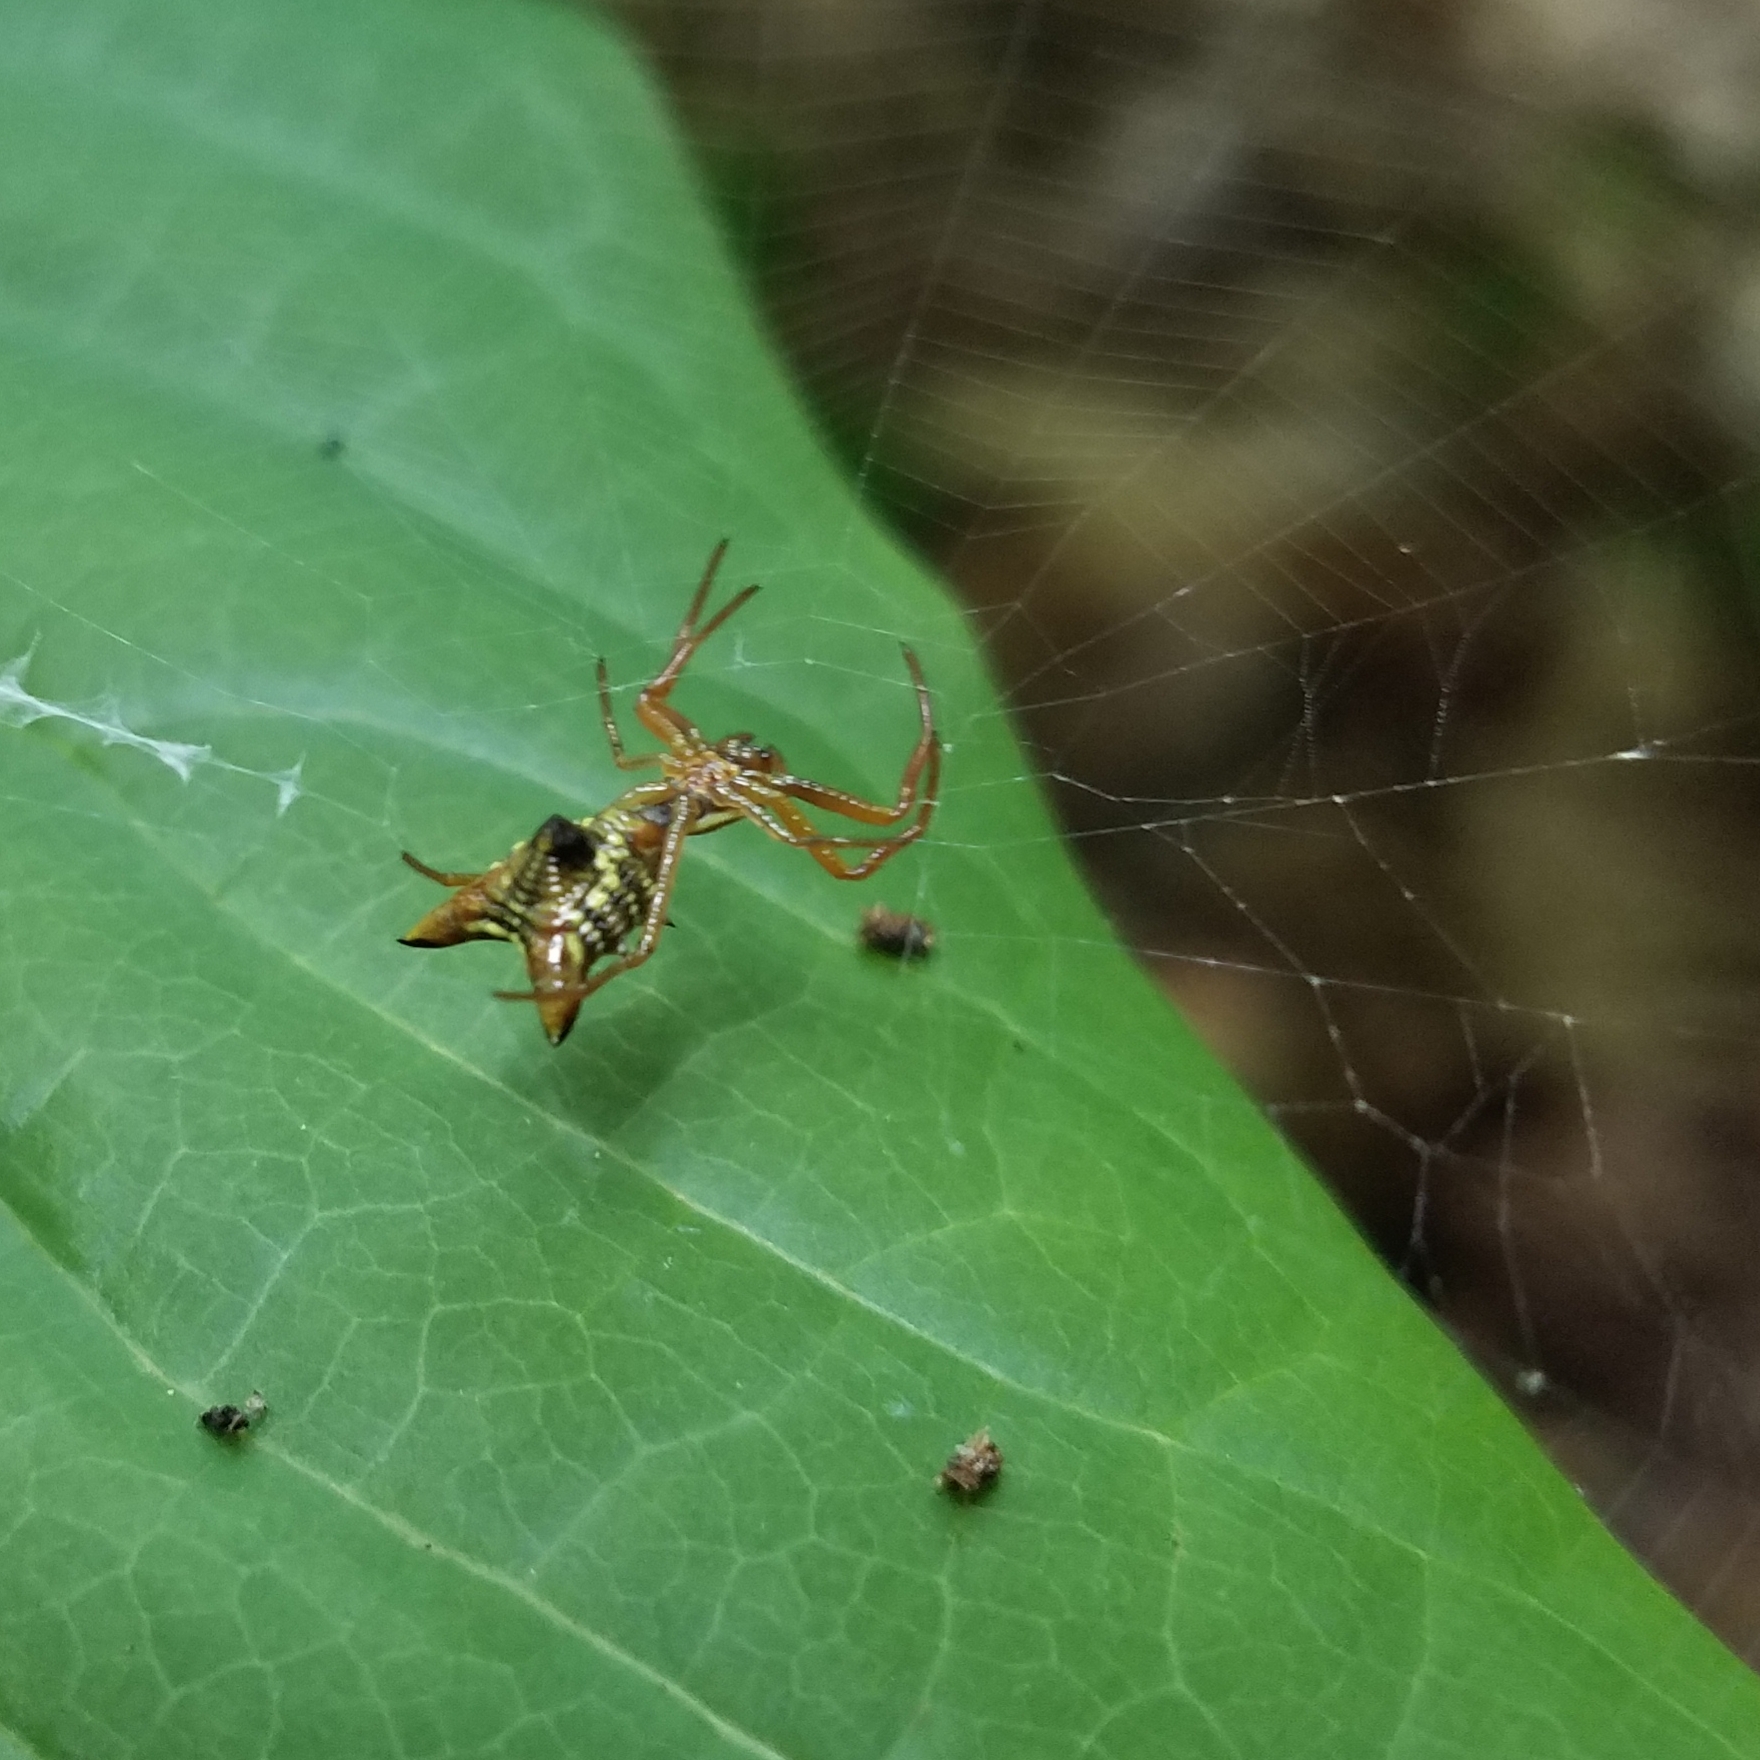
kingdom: Animalia
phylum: Arthropoda
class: Arachnida
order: Araneae
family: Araneidae
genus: Micrathena
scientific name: Micrathena sagittata
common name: Orb weavers
